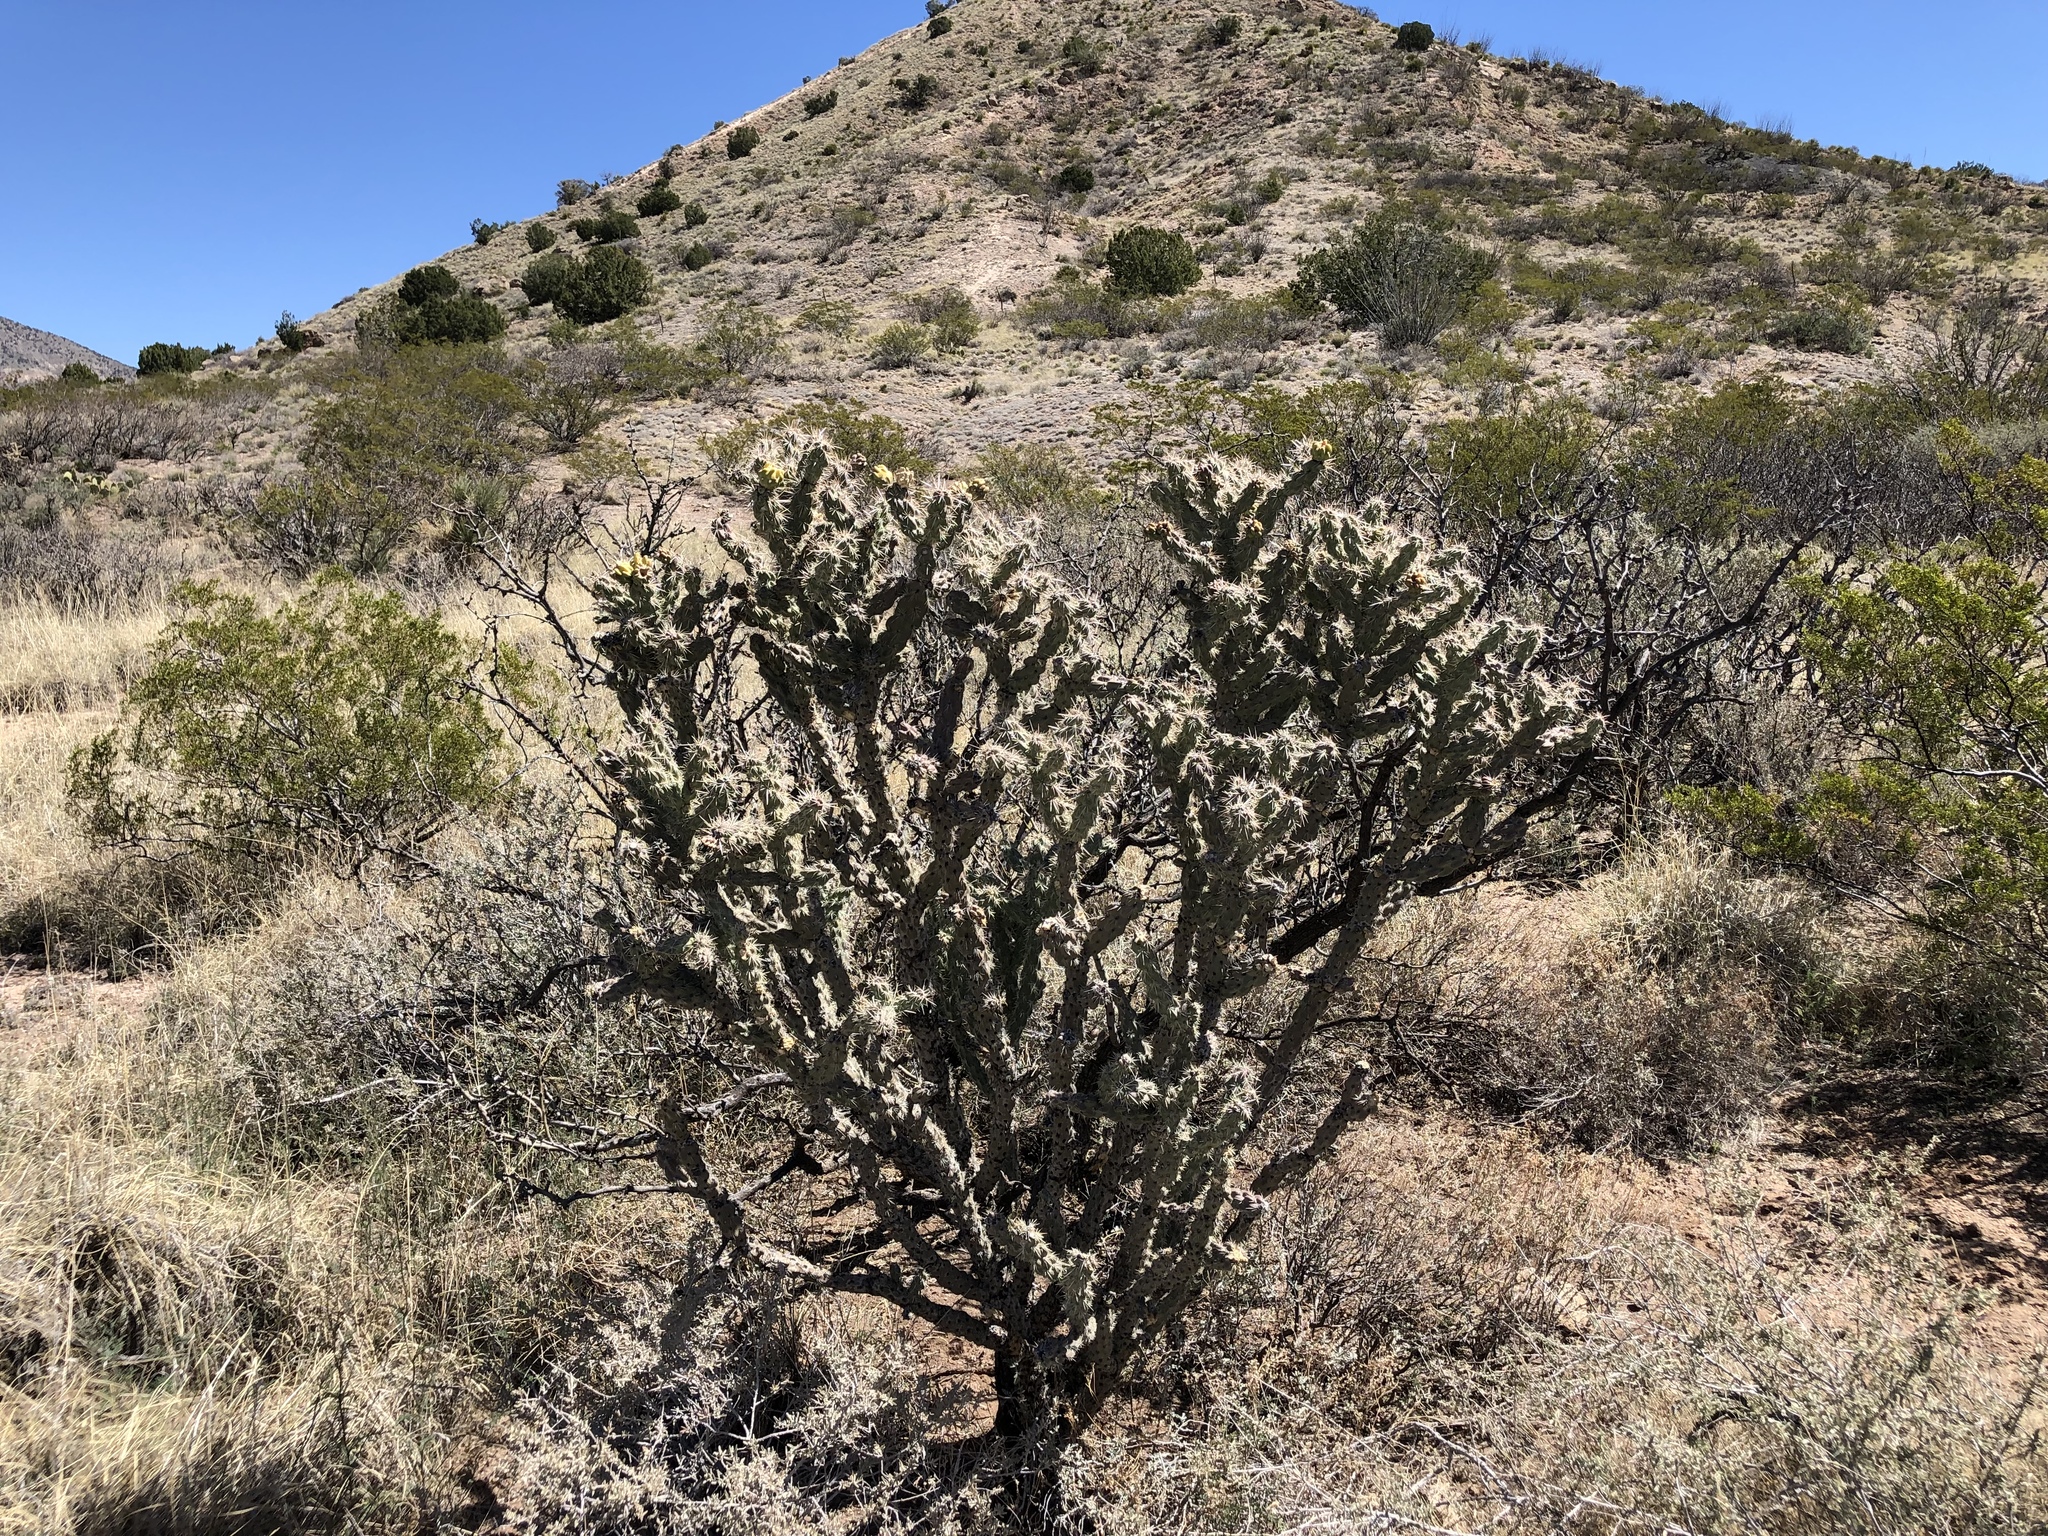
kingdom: Plantae
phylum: Tracheophyta
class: Magnoliopsida
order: Caryophyllales
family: Cactaceae
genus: Cylindropuntia
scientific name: Cylindropuntia imbricata
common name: Candelabrum cactus
